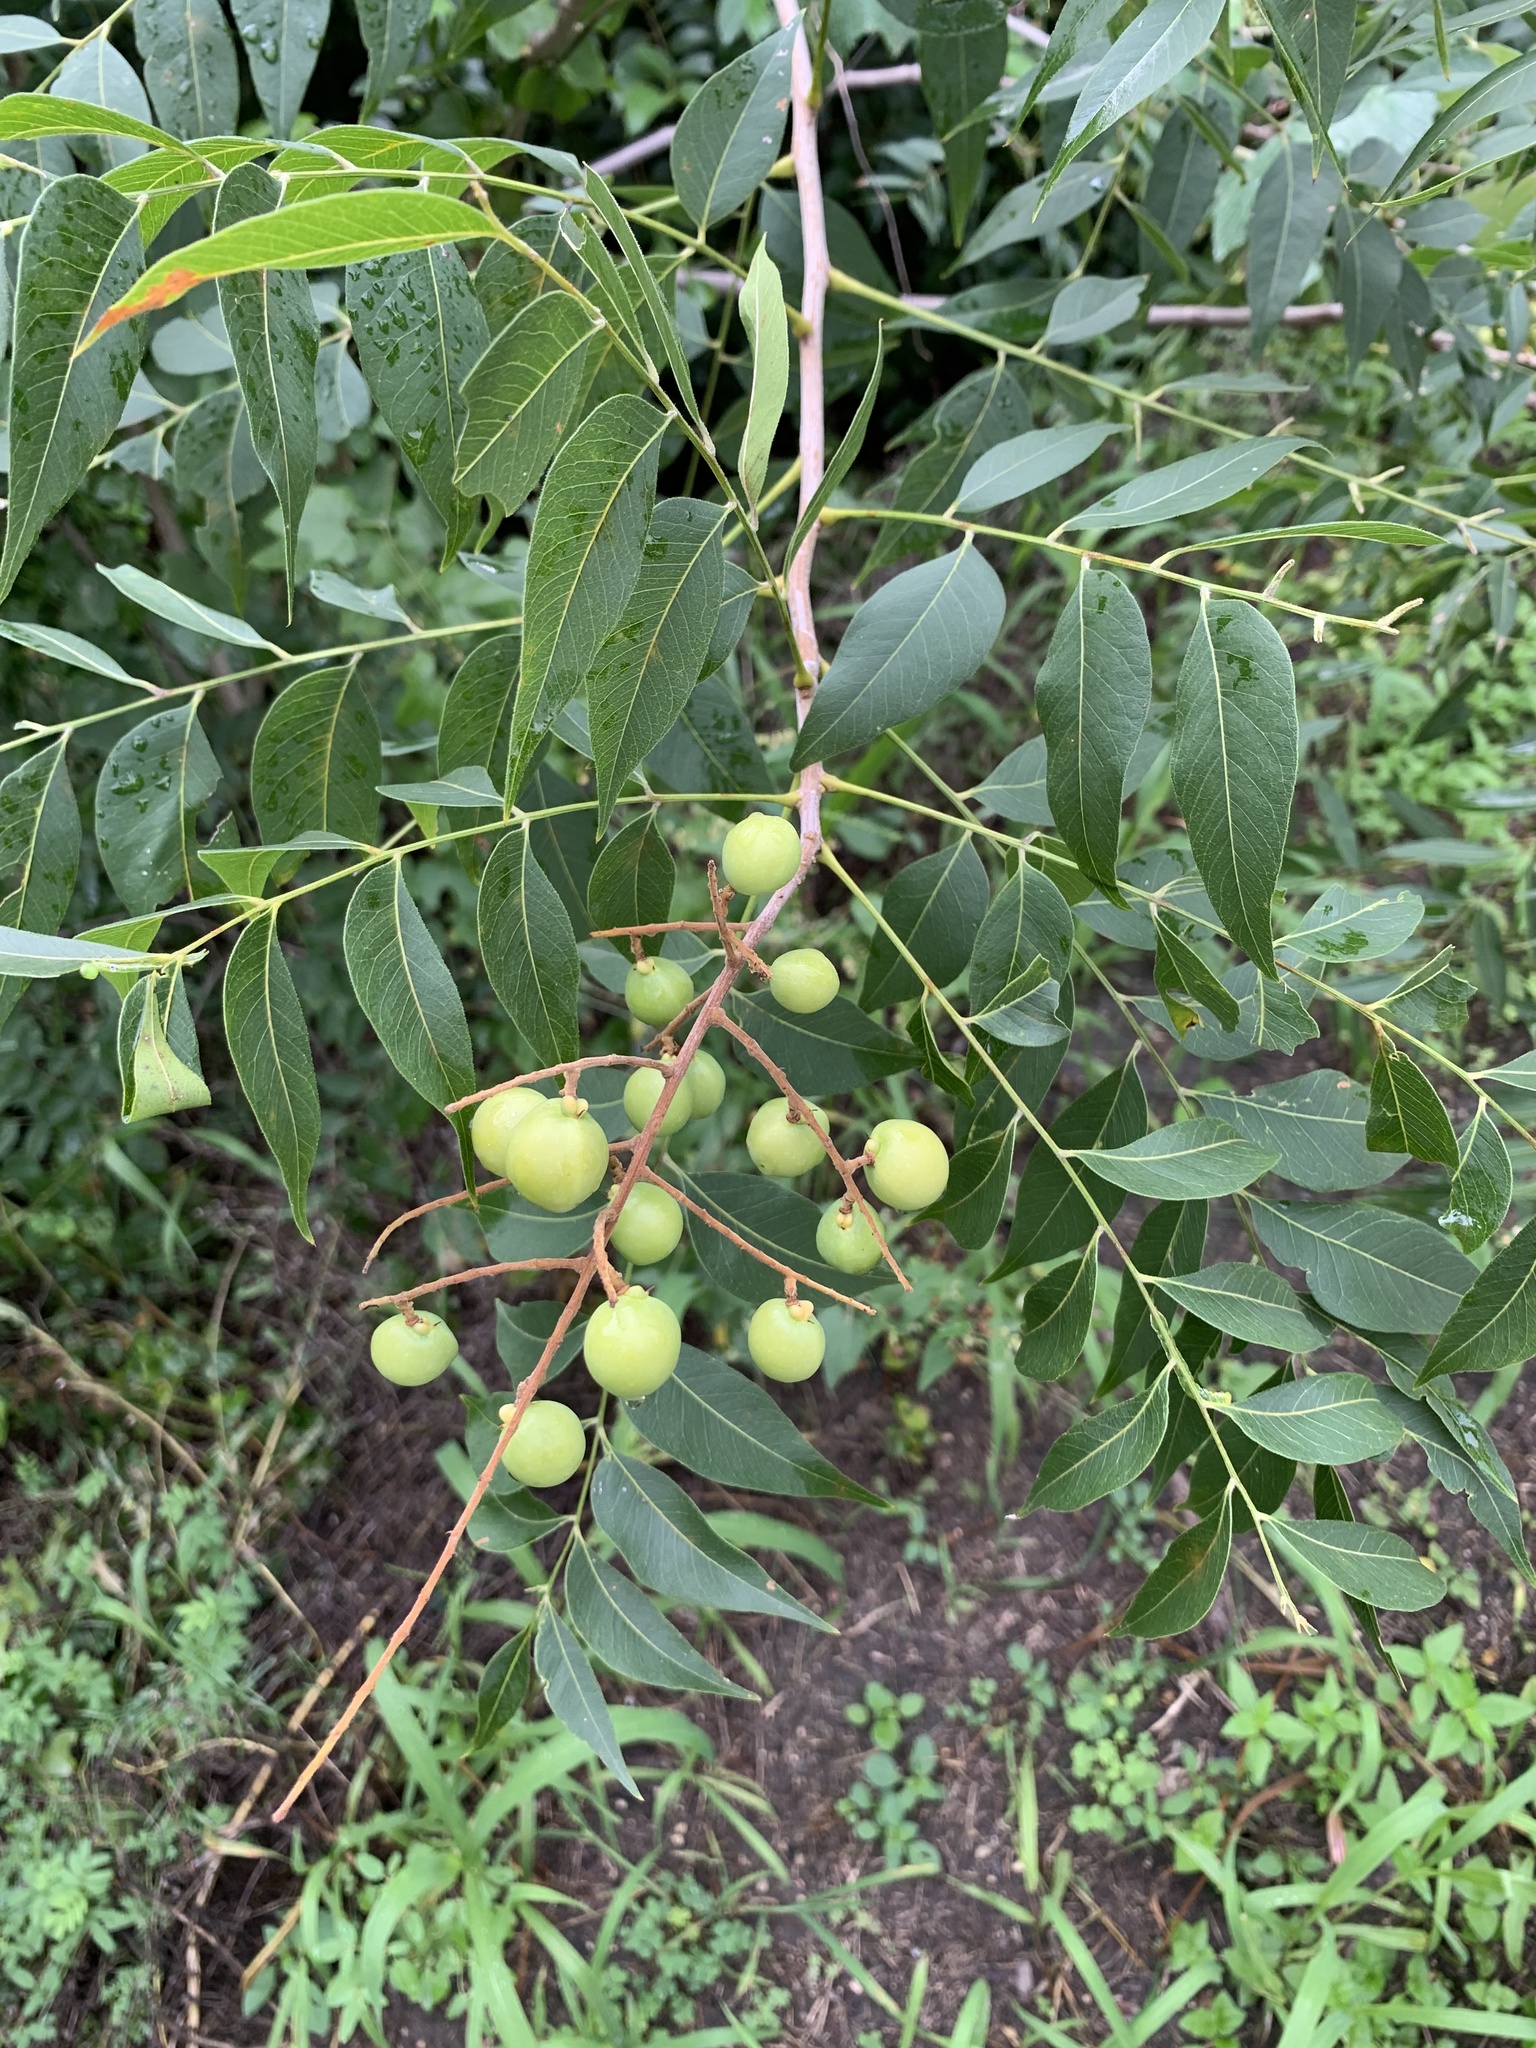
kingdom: Plantae
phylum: Tracheophyta
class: Magnoliopsida
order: Sapindales
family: Sapindaceae
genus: Sapindus
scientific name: Sapindus drummondii
